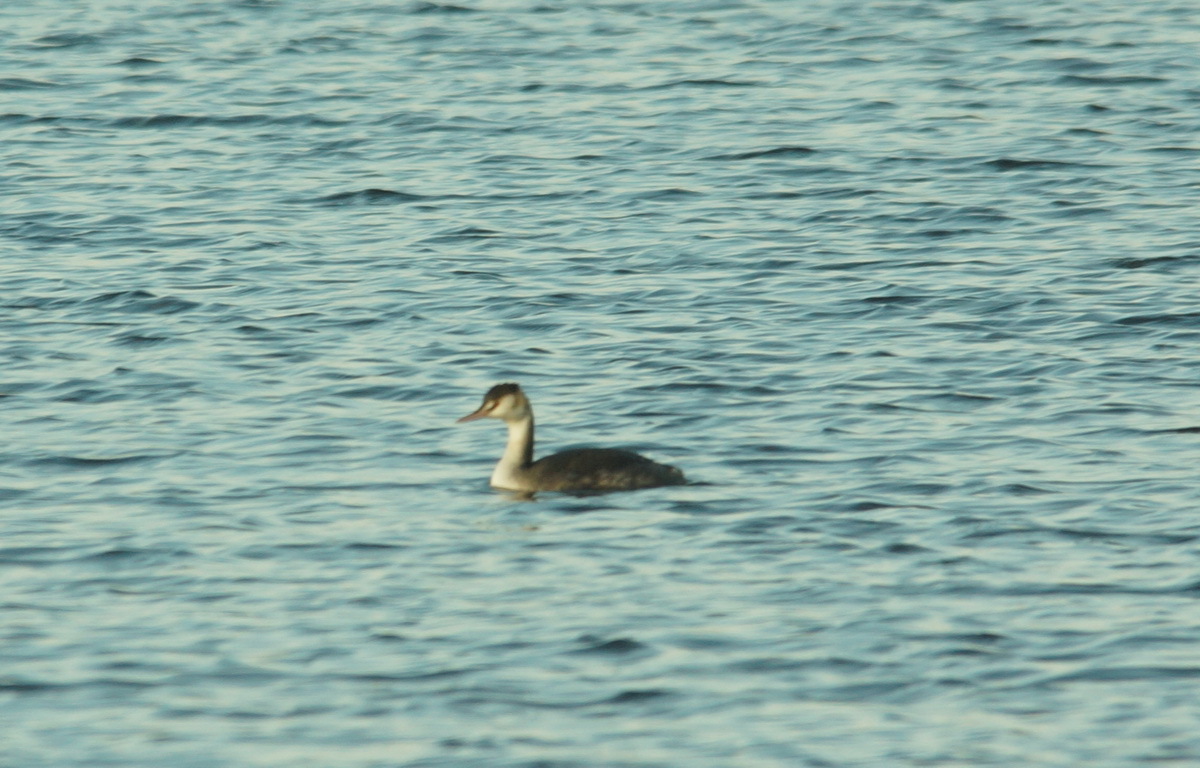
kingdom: Animalia
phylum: Chordata
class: Aves
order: Podicipediformes
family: Podicipedidae
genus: Podiceps
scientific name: Podiceps cristatus
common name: Great crested grebe
